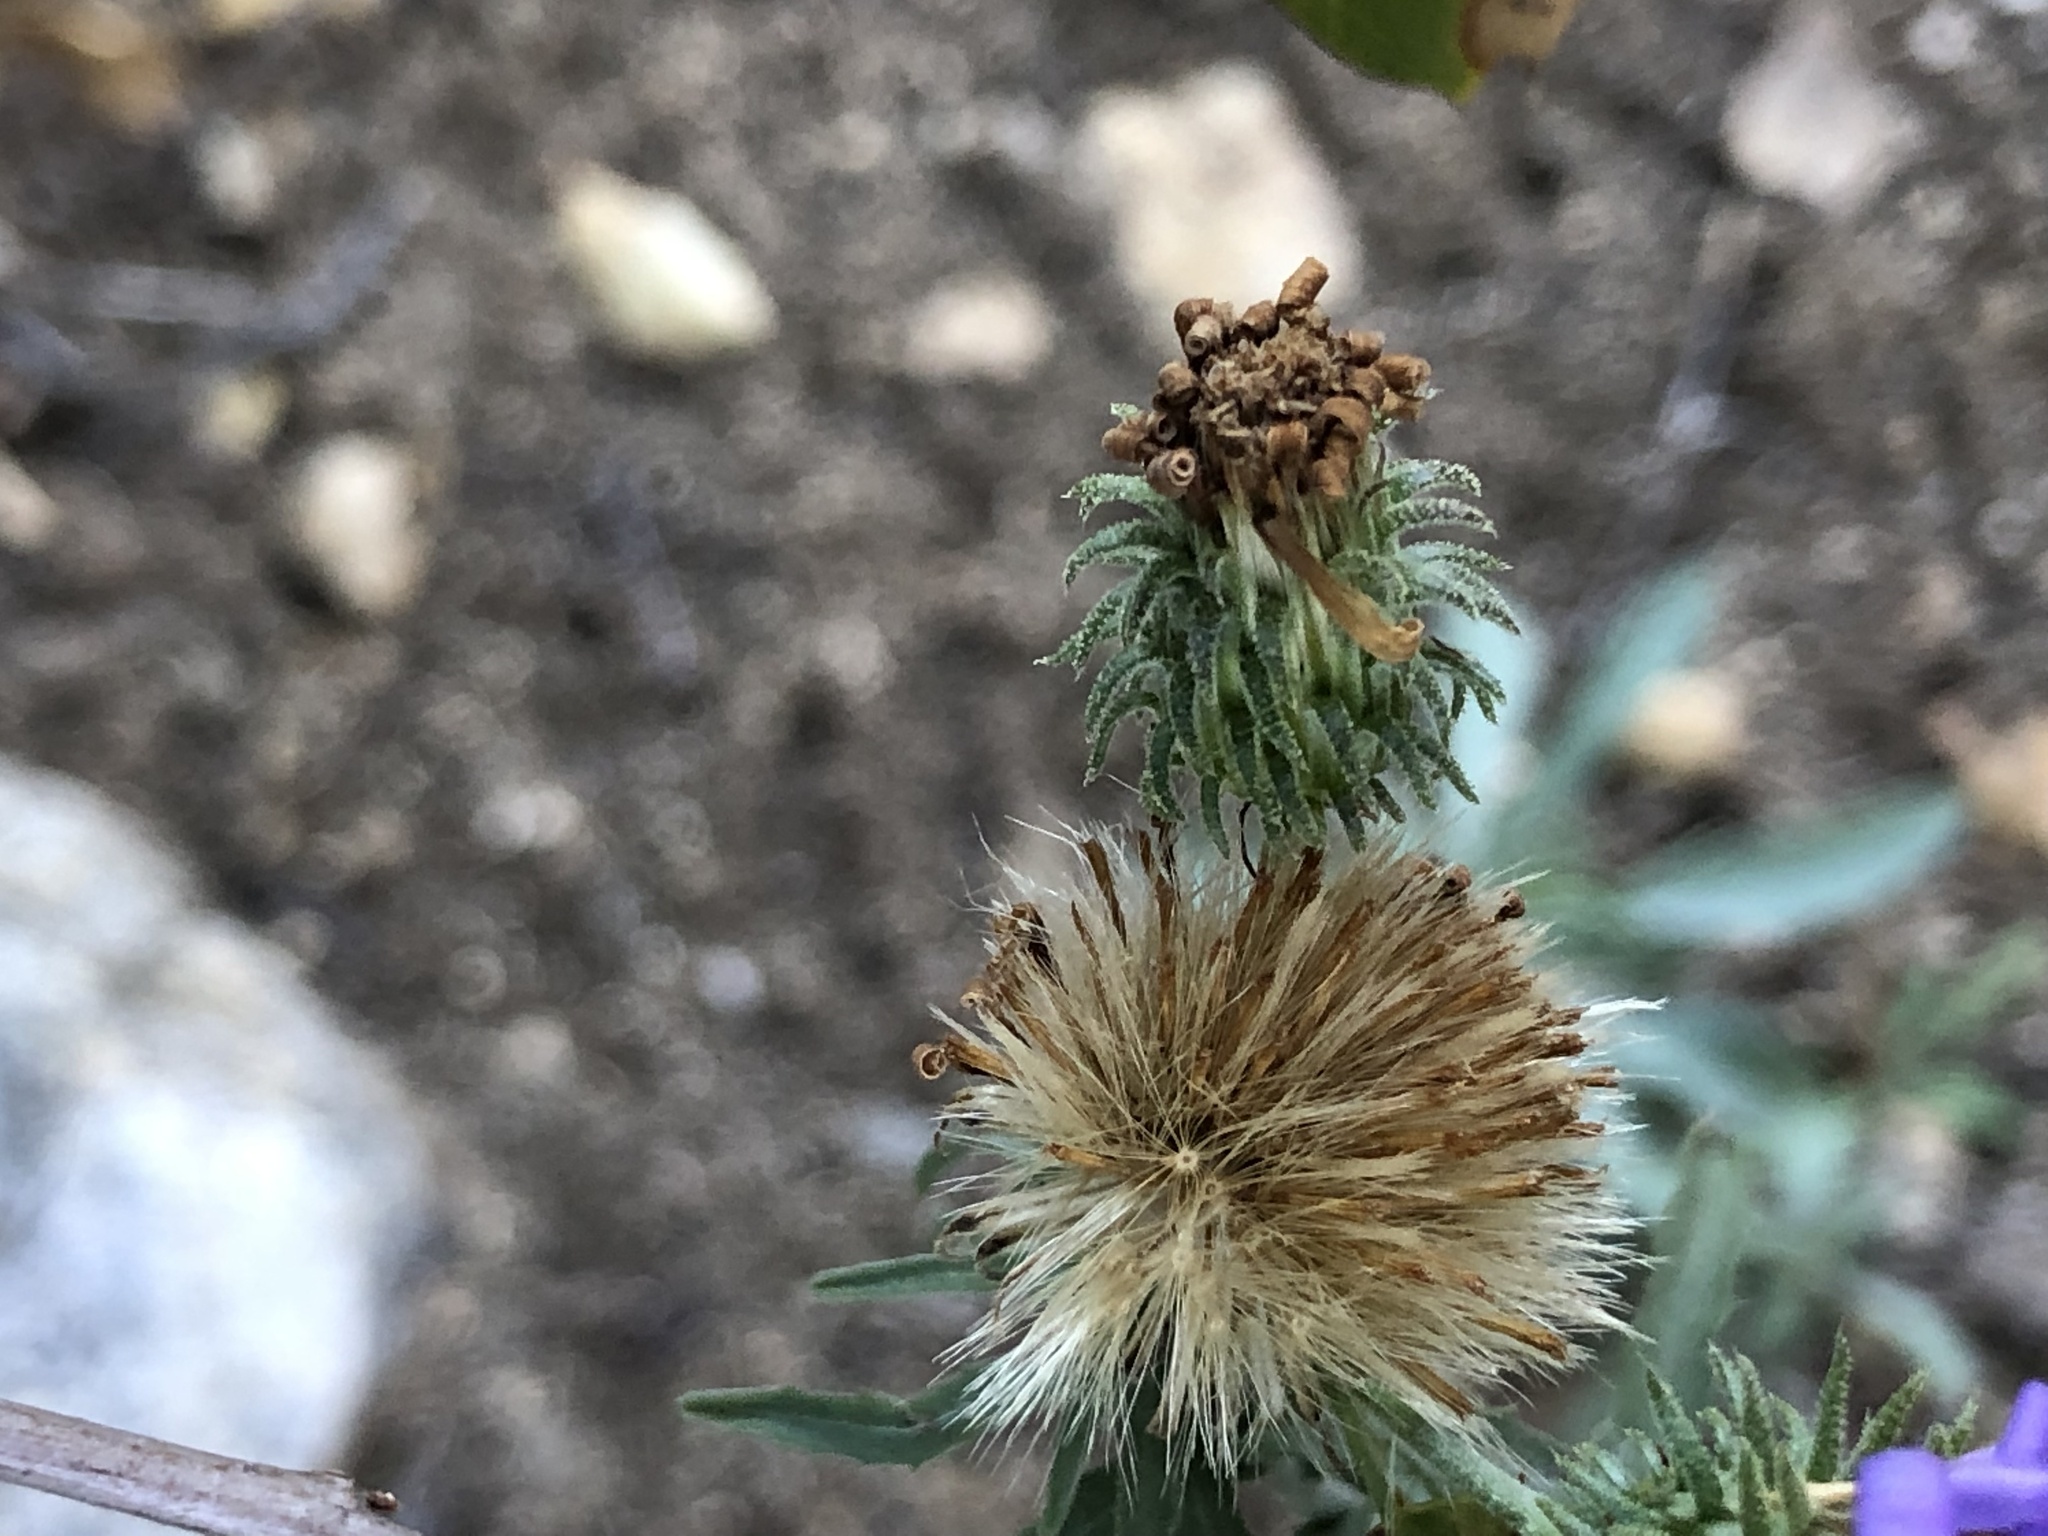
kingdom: Plantae
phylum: Tracheophyta
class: Magnoliopsida
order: Asterales
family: Asteraceae
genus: Dieteria
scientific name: Dieteria canescens
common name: Hoary-aster
